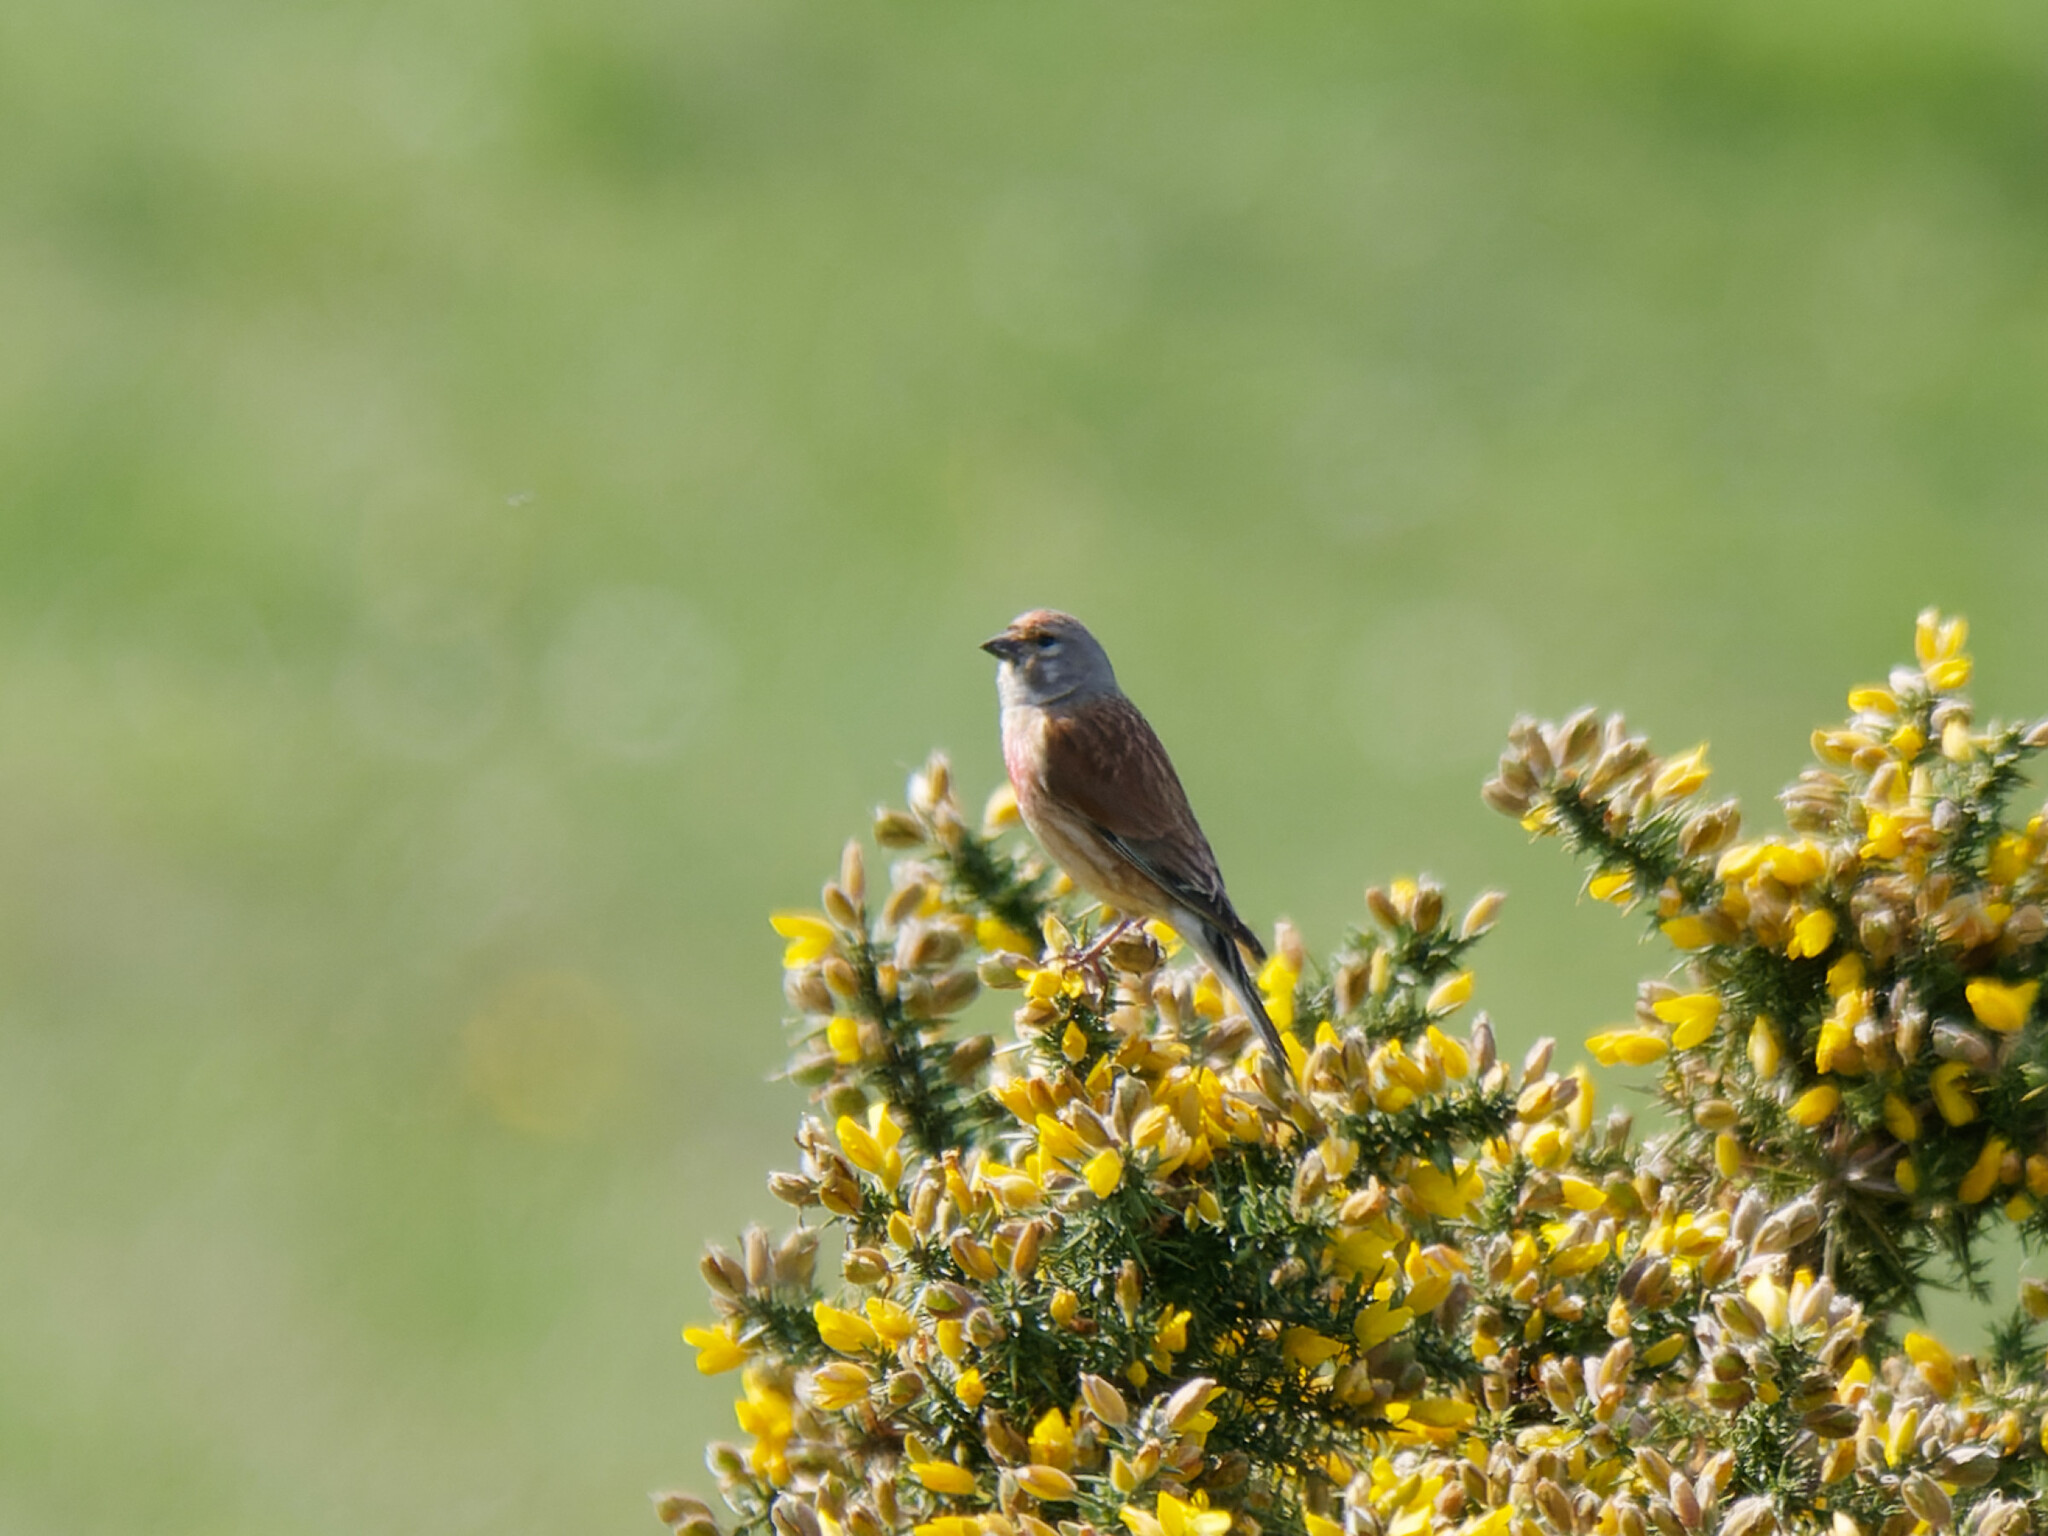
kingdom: Animalia
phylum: Chordata
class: Aves
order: Passeriformes
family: Fringillidae
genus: Linaria
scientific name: Linaria cannabina
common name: Common linnet
